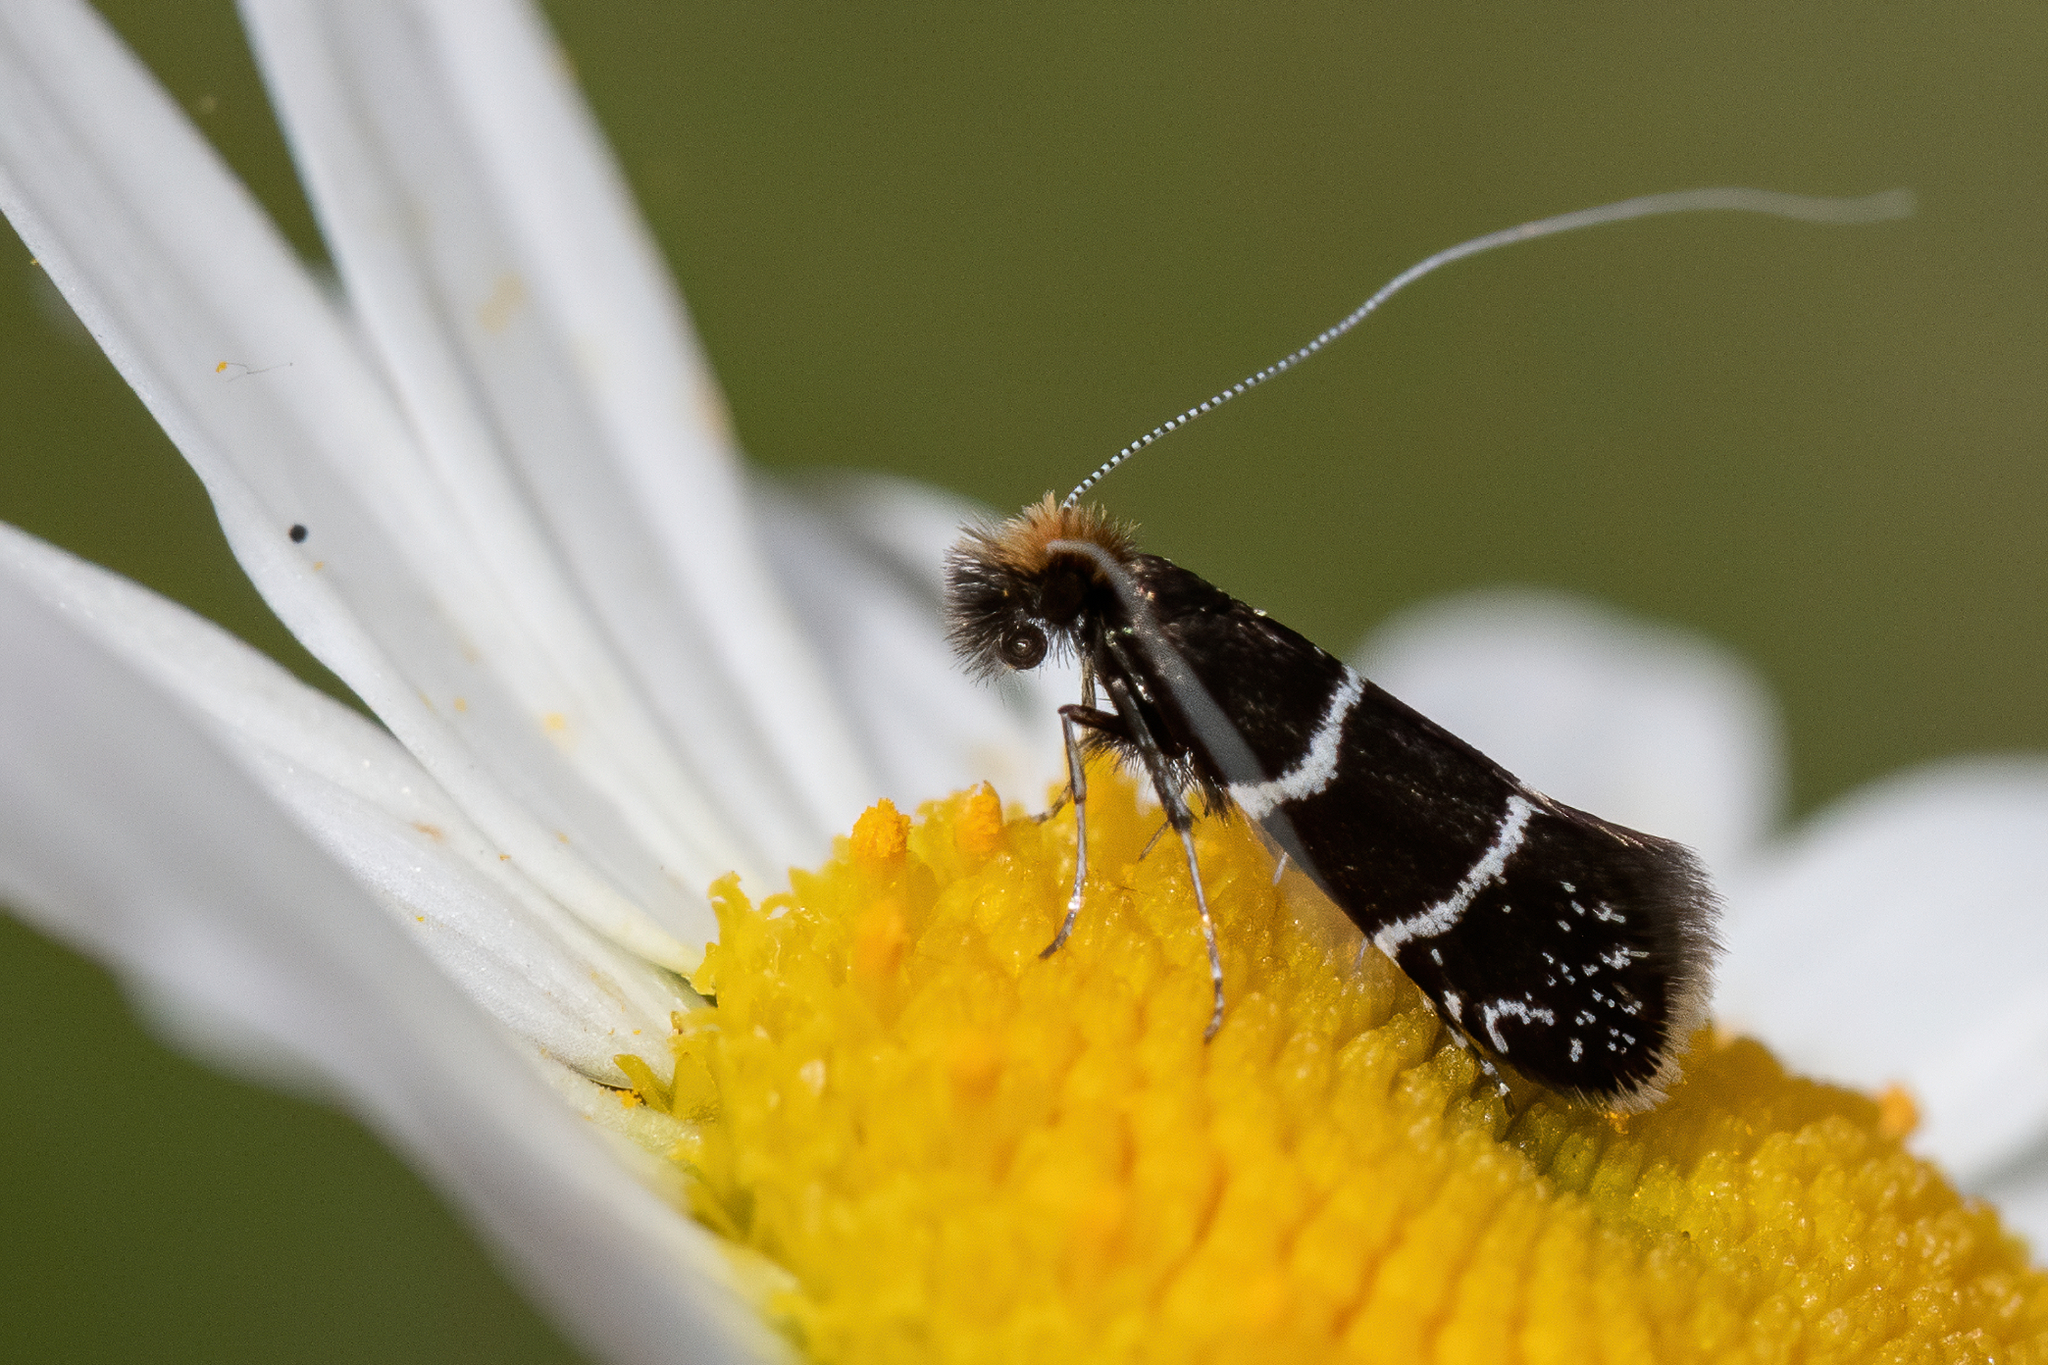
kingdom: Animalia
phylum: Arthropoda
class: Insecta
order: Lepidoptera
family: Adelidae
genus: Adela
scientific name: Adela septentrionella
